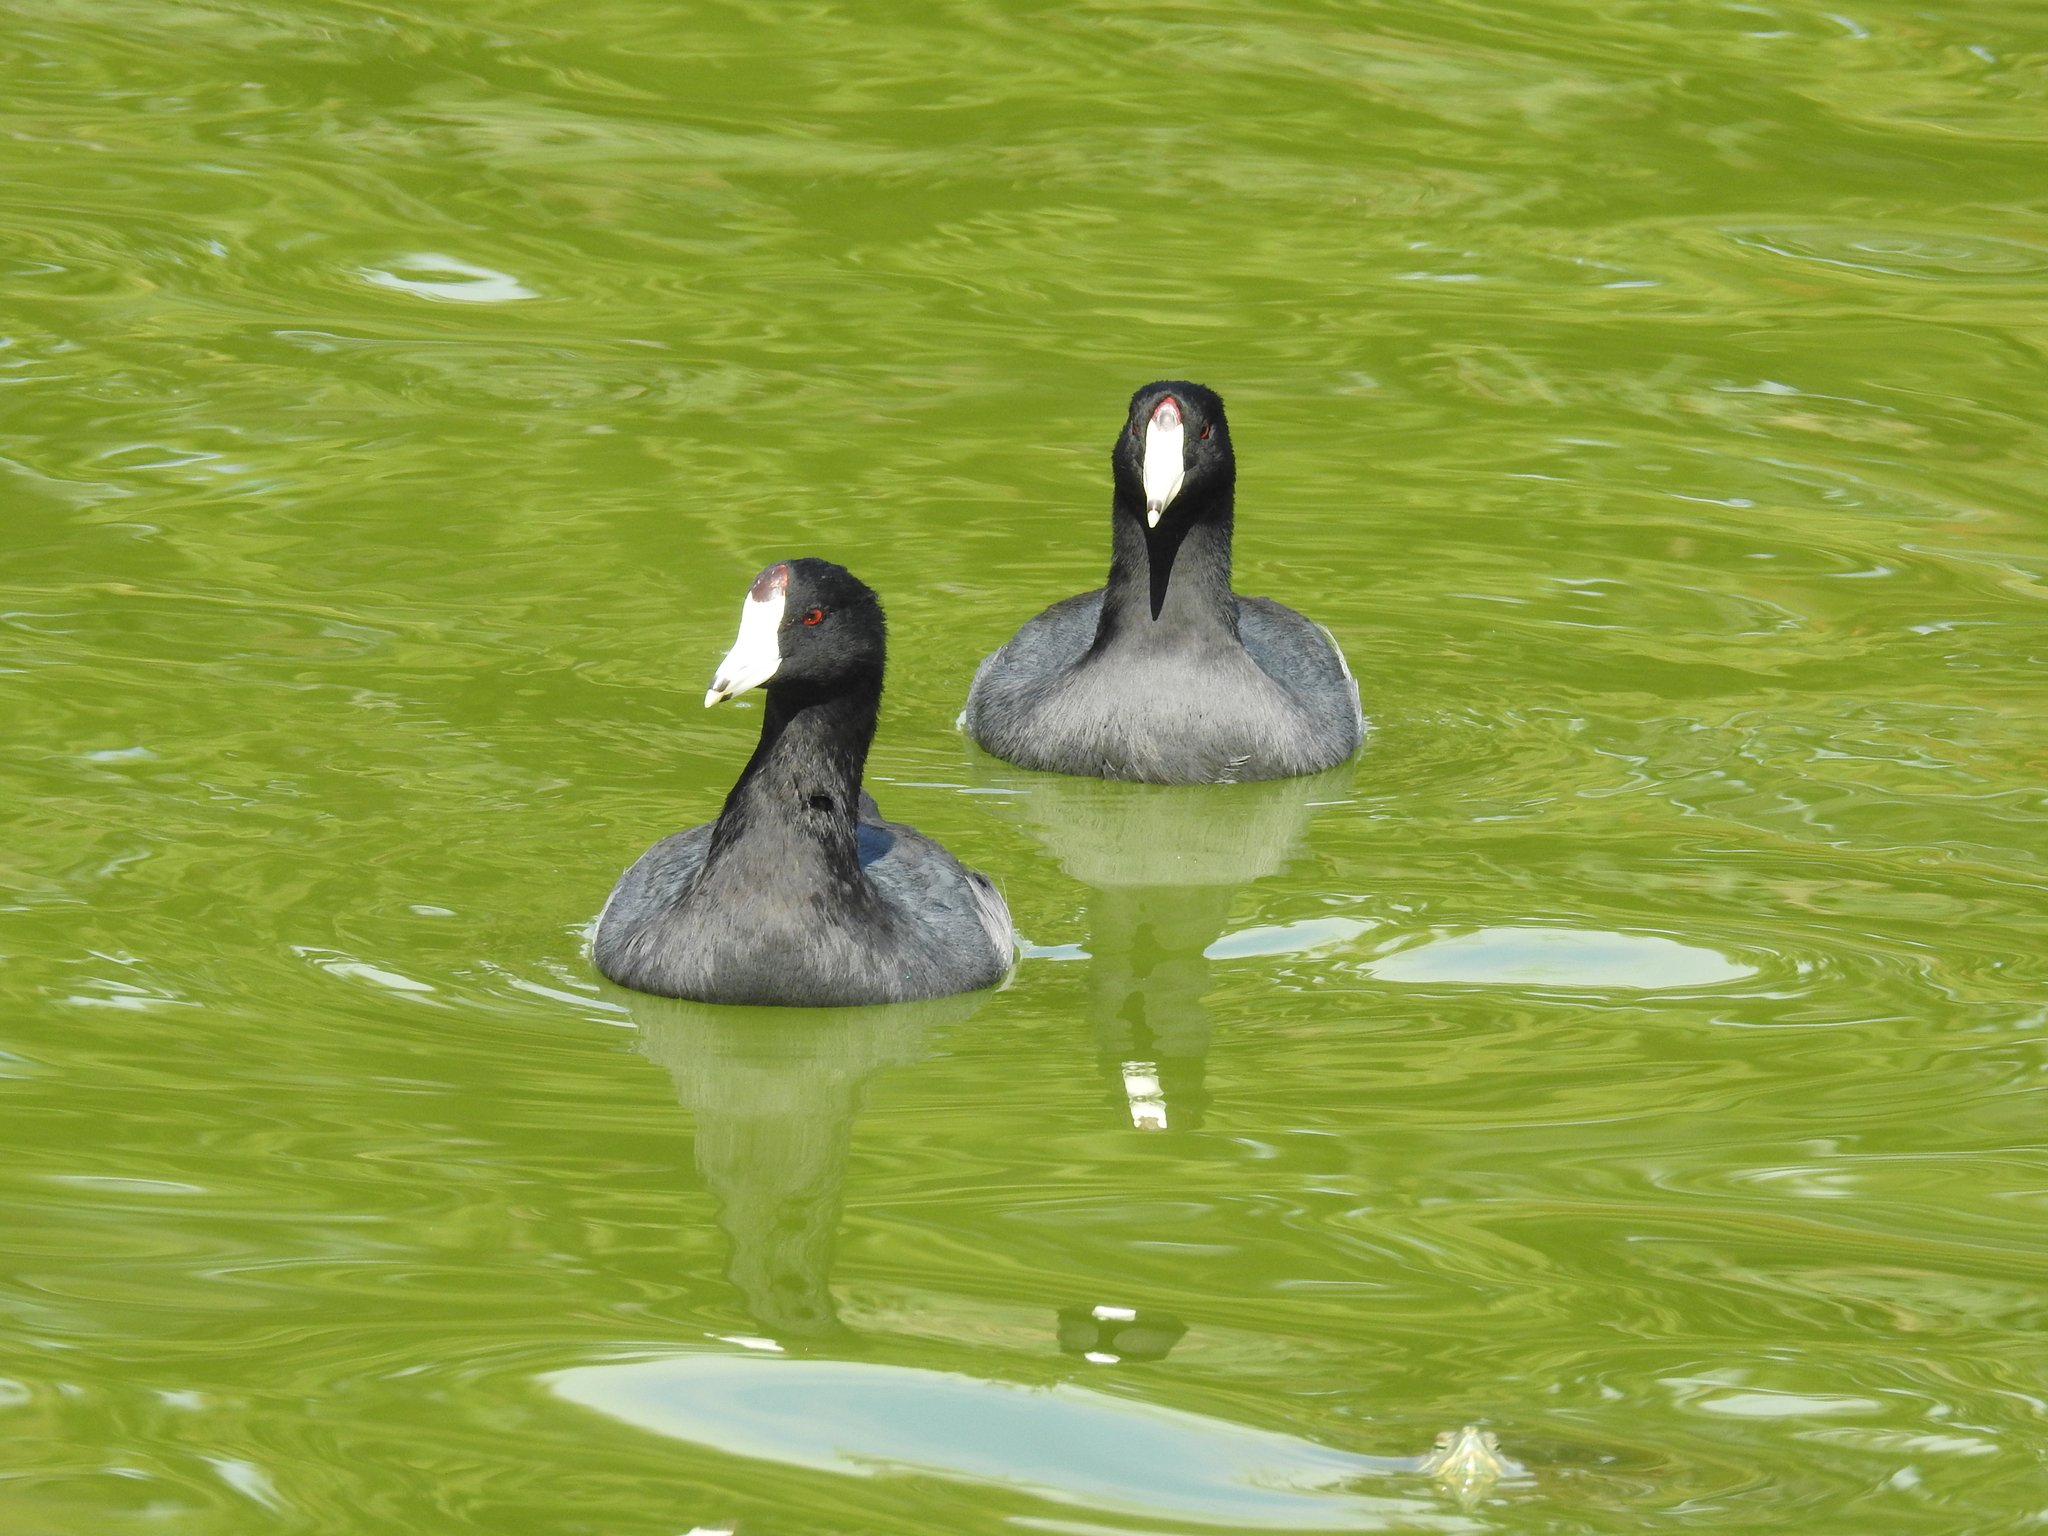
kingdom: Animalia
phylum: Chordata
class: Aves
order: Gruiformes
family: Rallidae
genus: Fulica
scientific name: Fulica americana
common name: American coot
